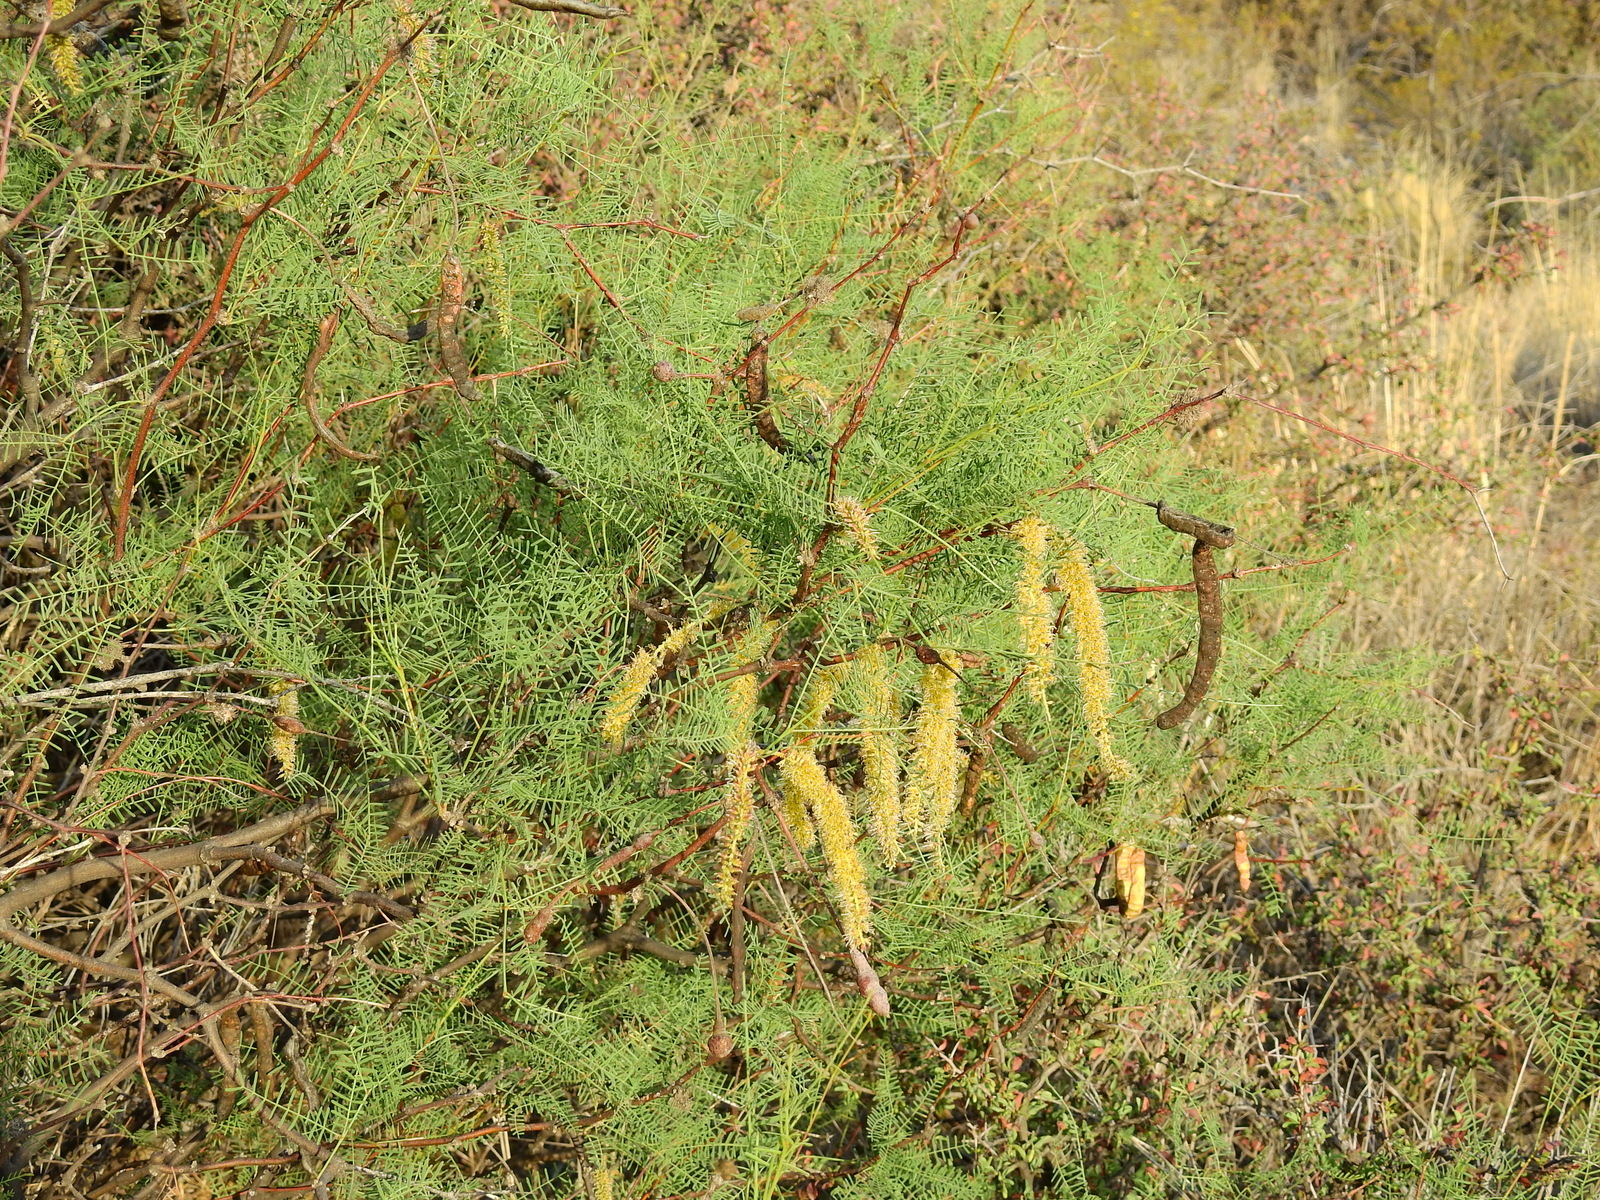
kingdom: Plantae
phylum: Tracheophyta
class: Magnoliopsida
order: Fabales
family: Fabaceae
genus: Prosopis
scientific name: Prosopis flexuosa
